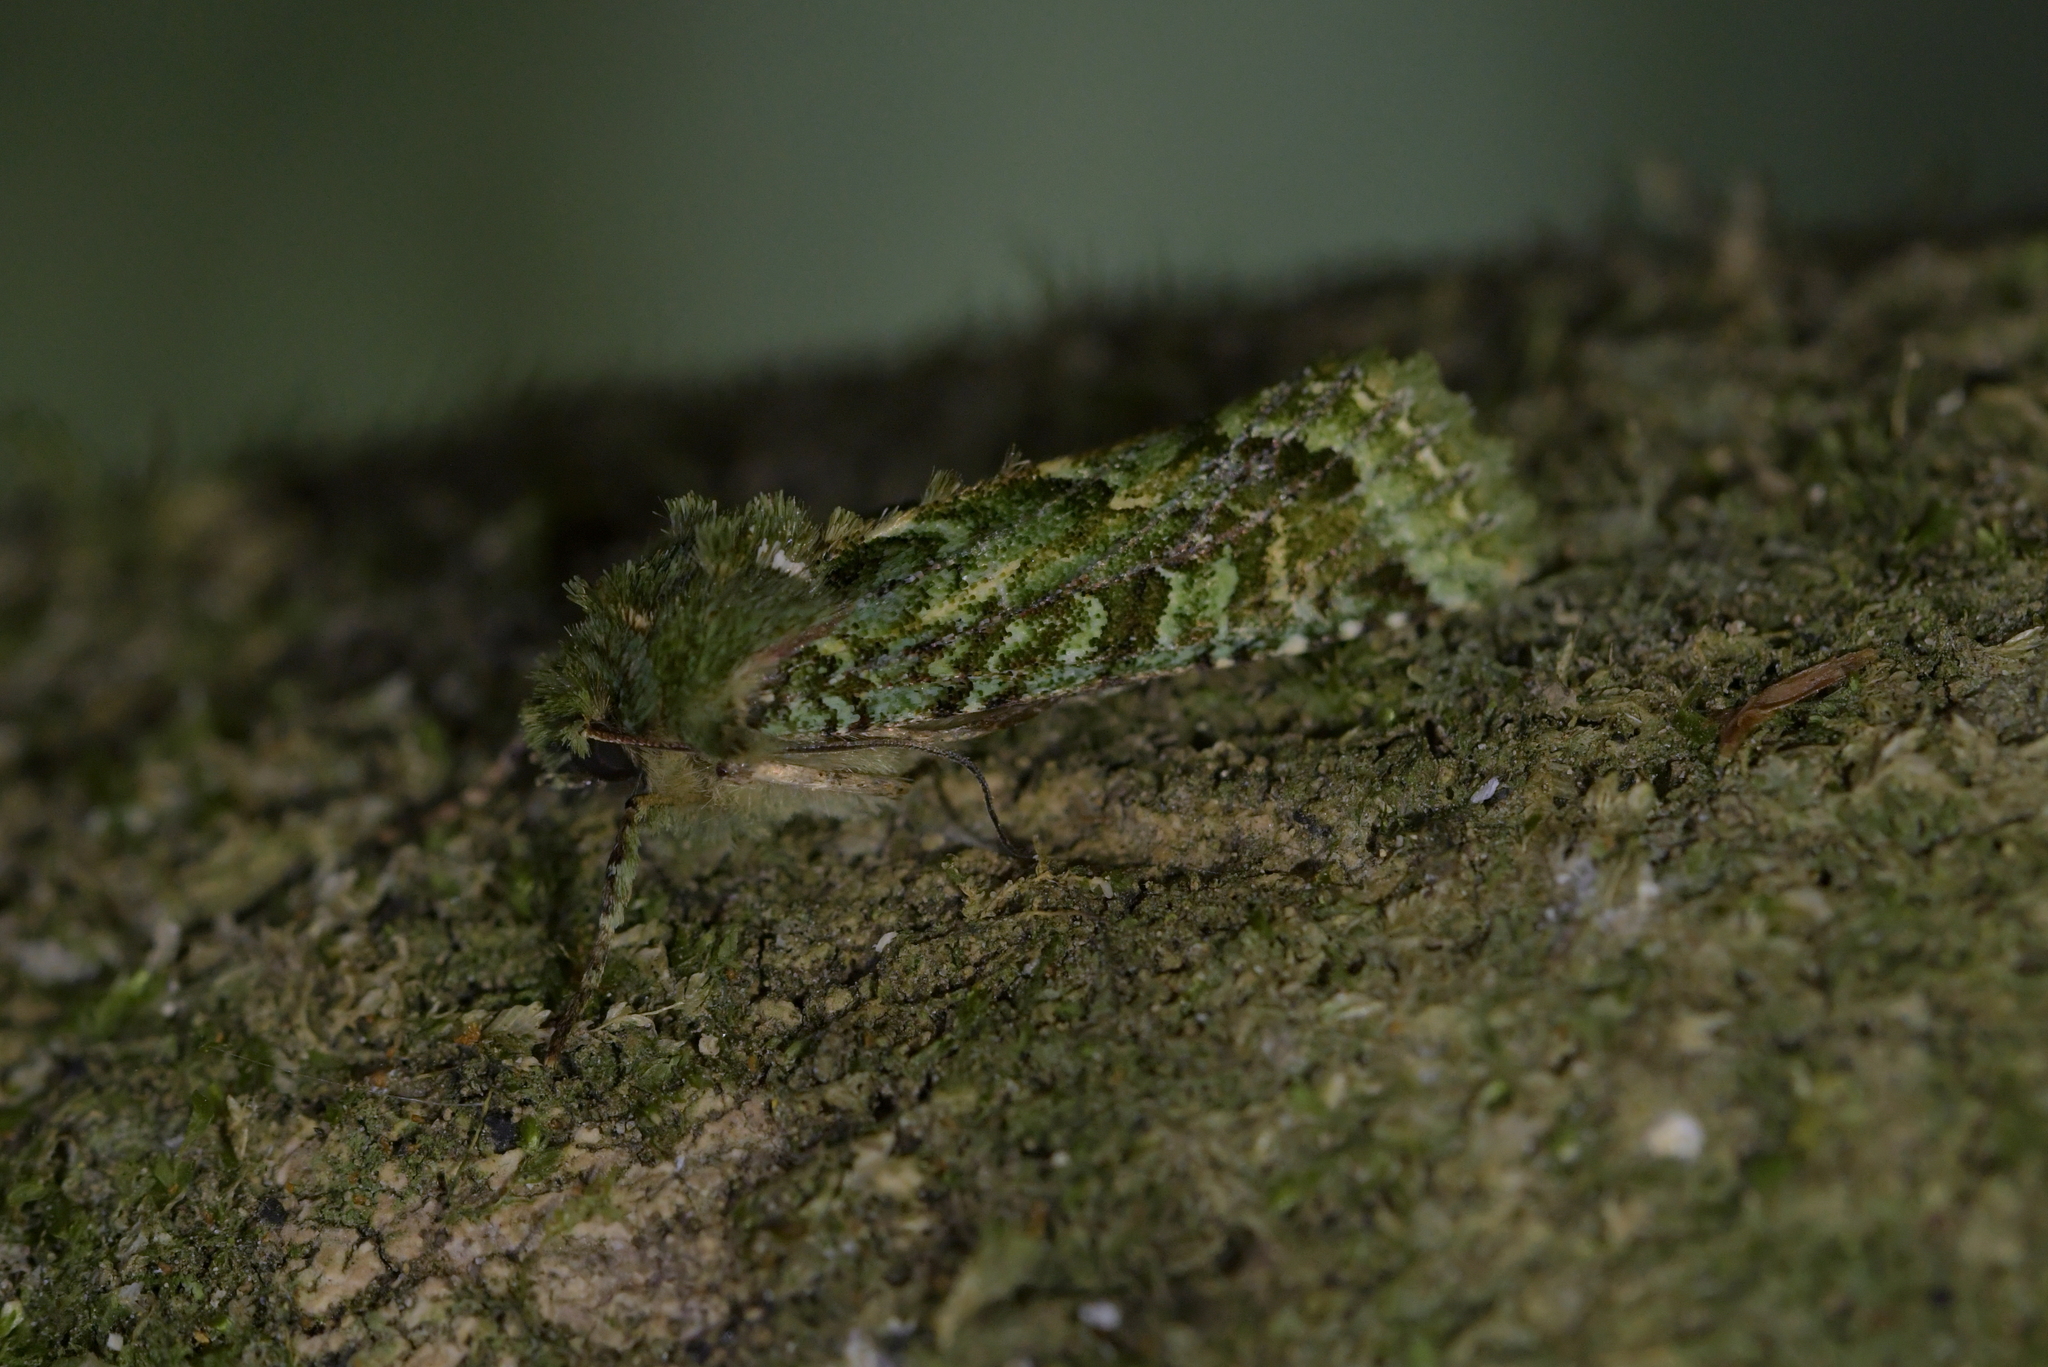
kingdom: Animalia
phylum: Arthropoda
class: Insecta
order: Lepidoptera
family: Noctuidae
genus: Feredayia
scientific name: Feredayia grammosa
